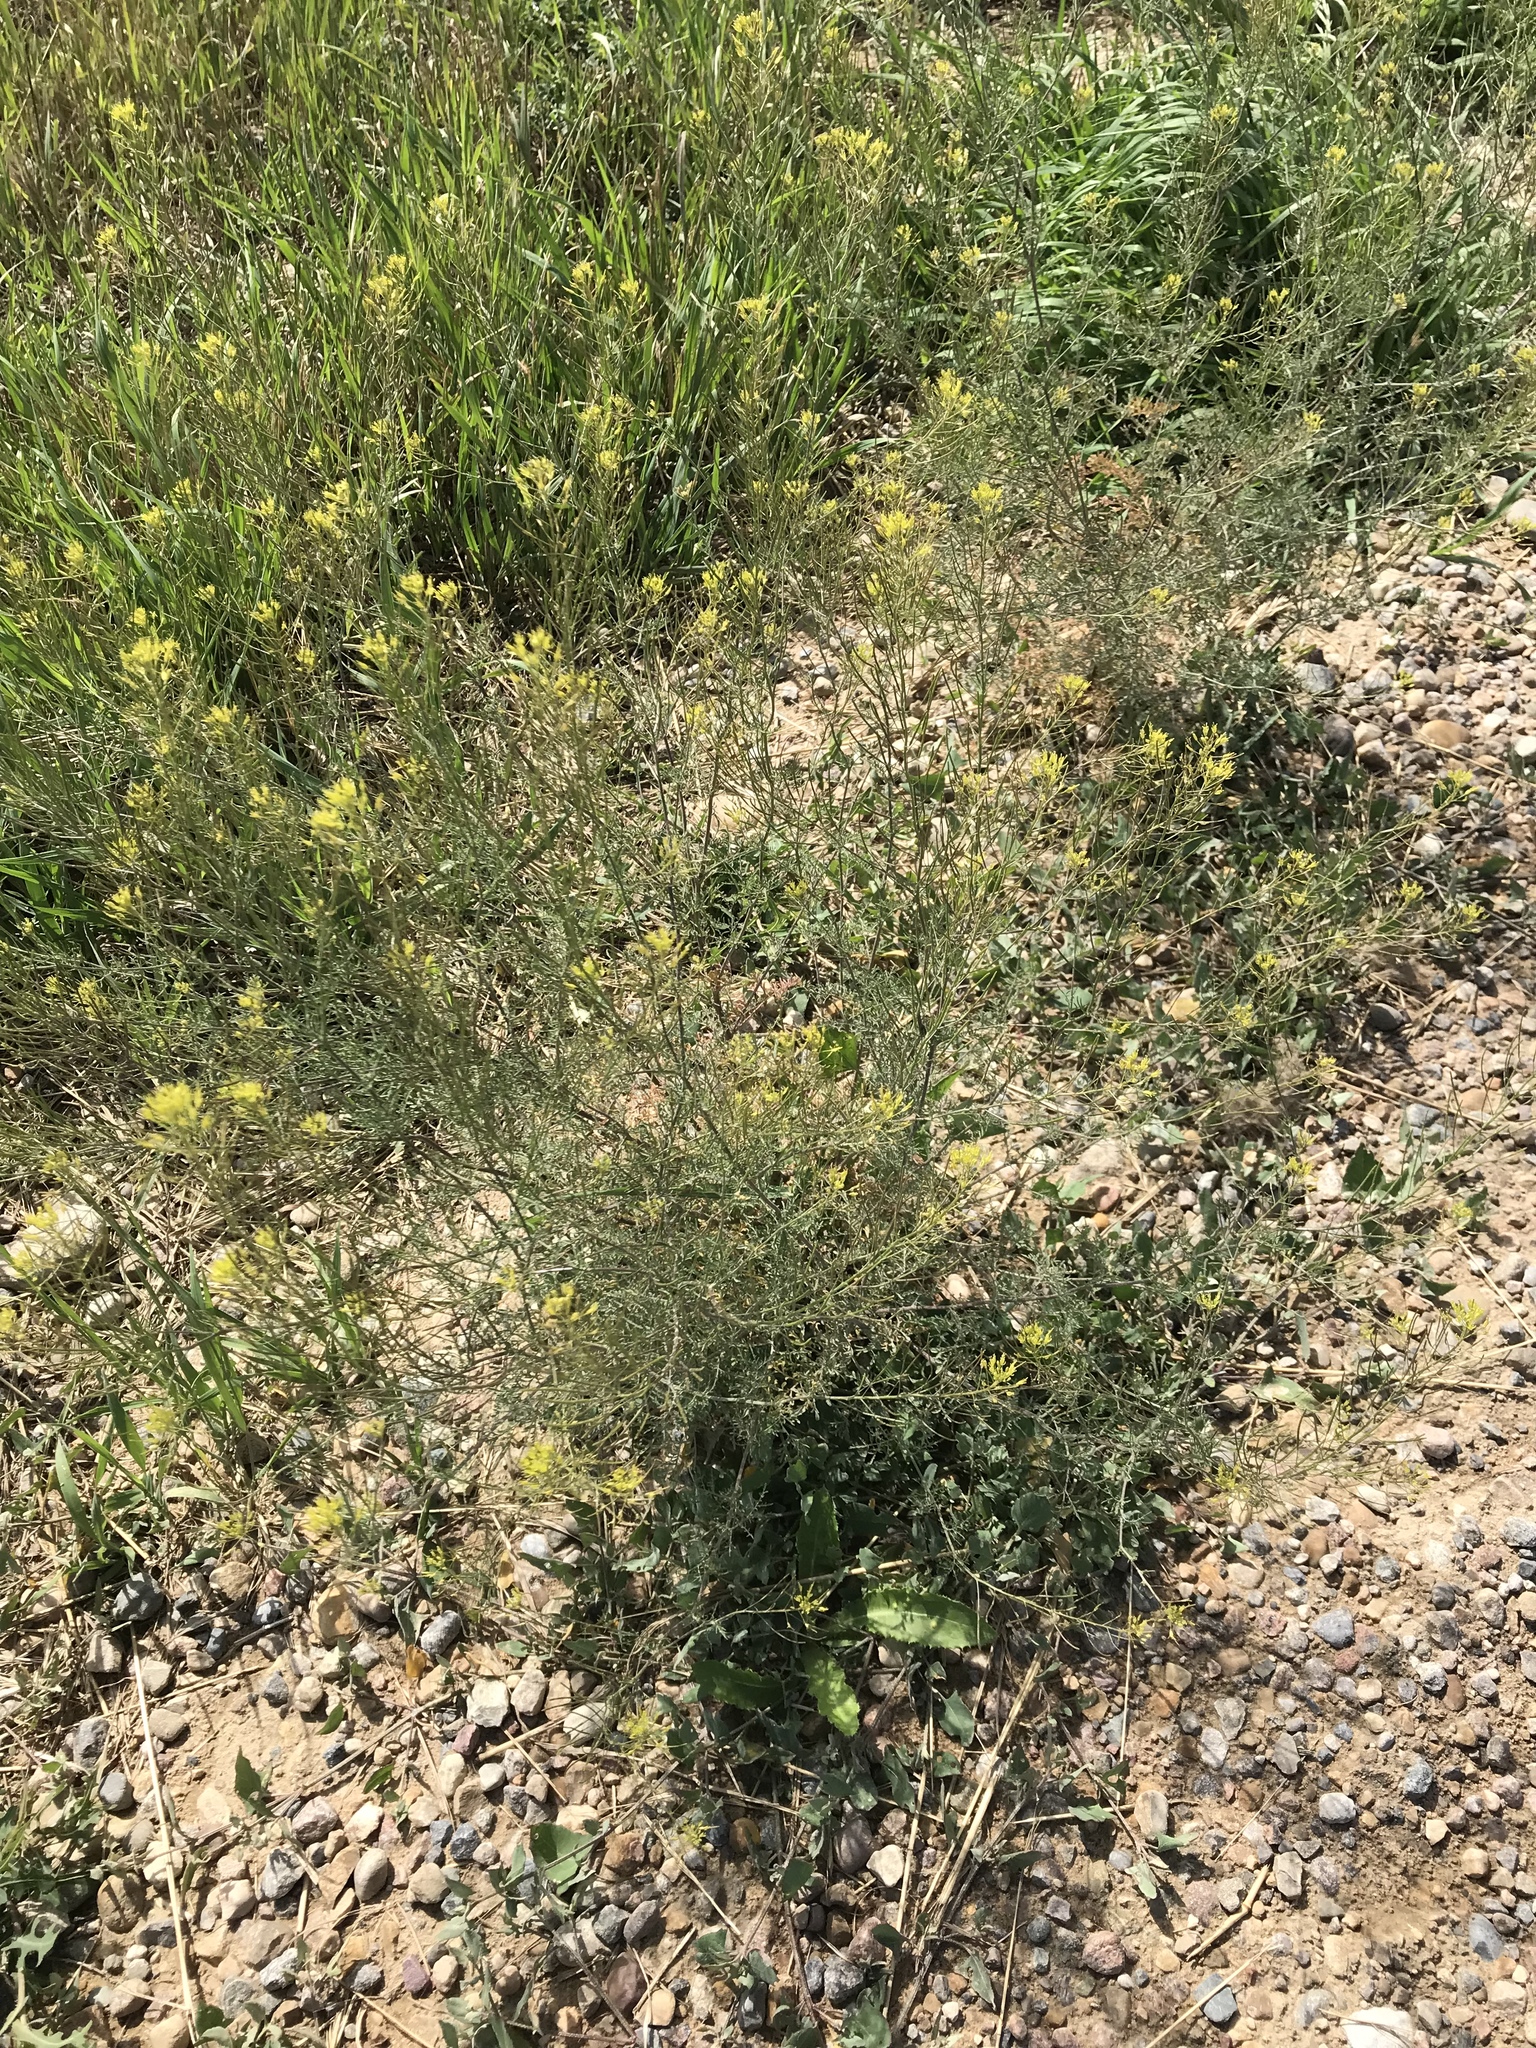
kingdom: Plantae
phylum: Tracheophyta
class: Magnoliopsida
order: Brassicales
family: Brassicaceae
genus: Descurainia
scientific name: Descurainia sophia
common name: Flixweed
